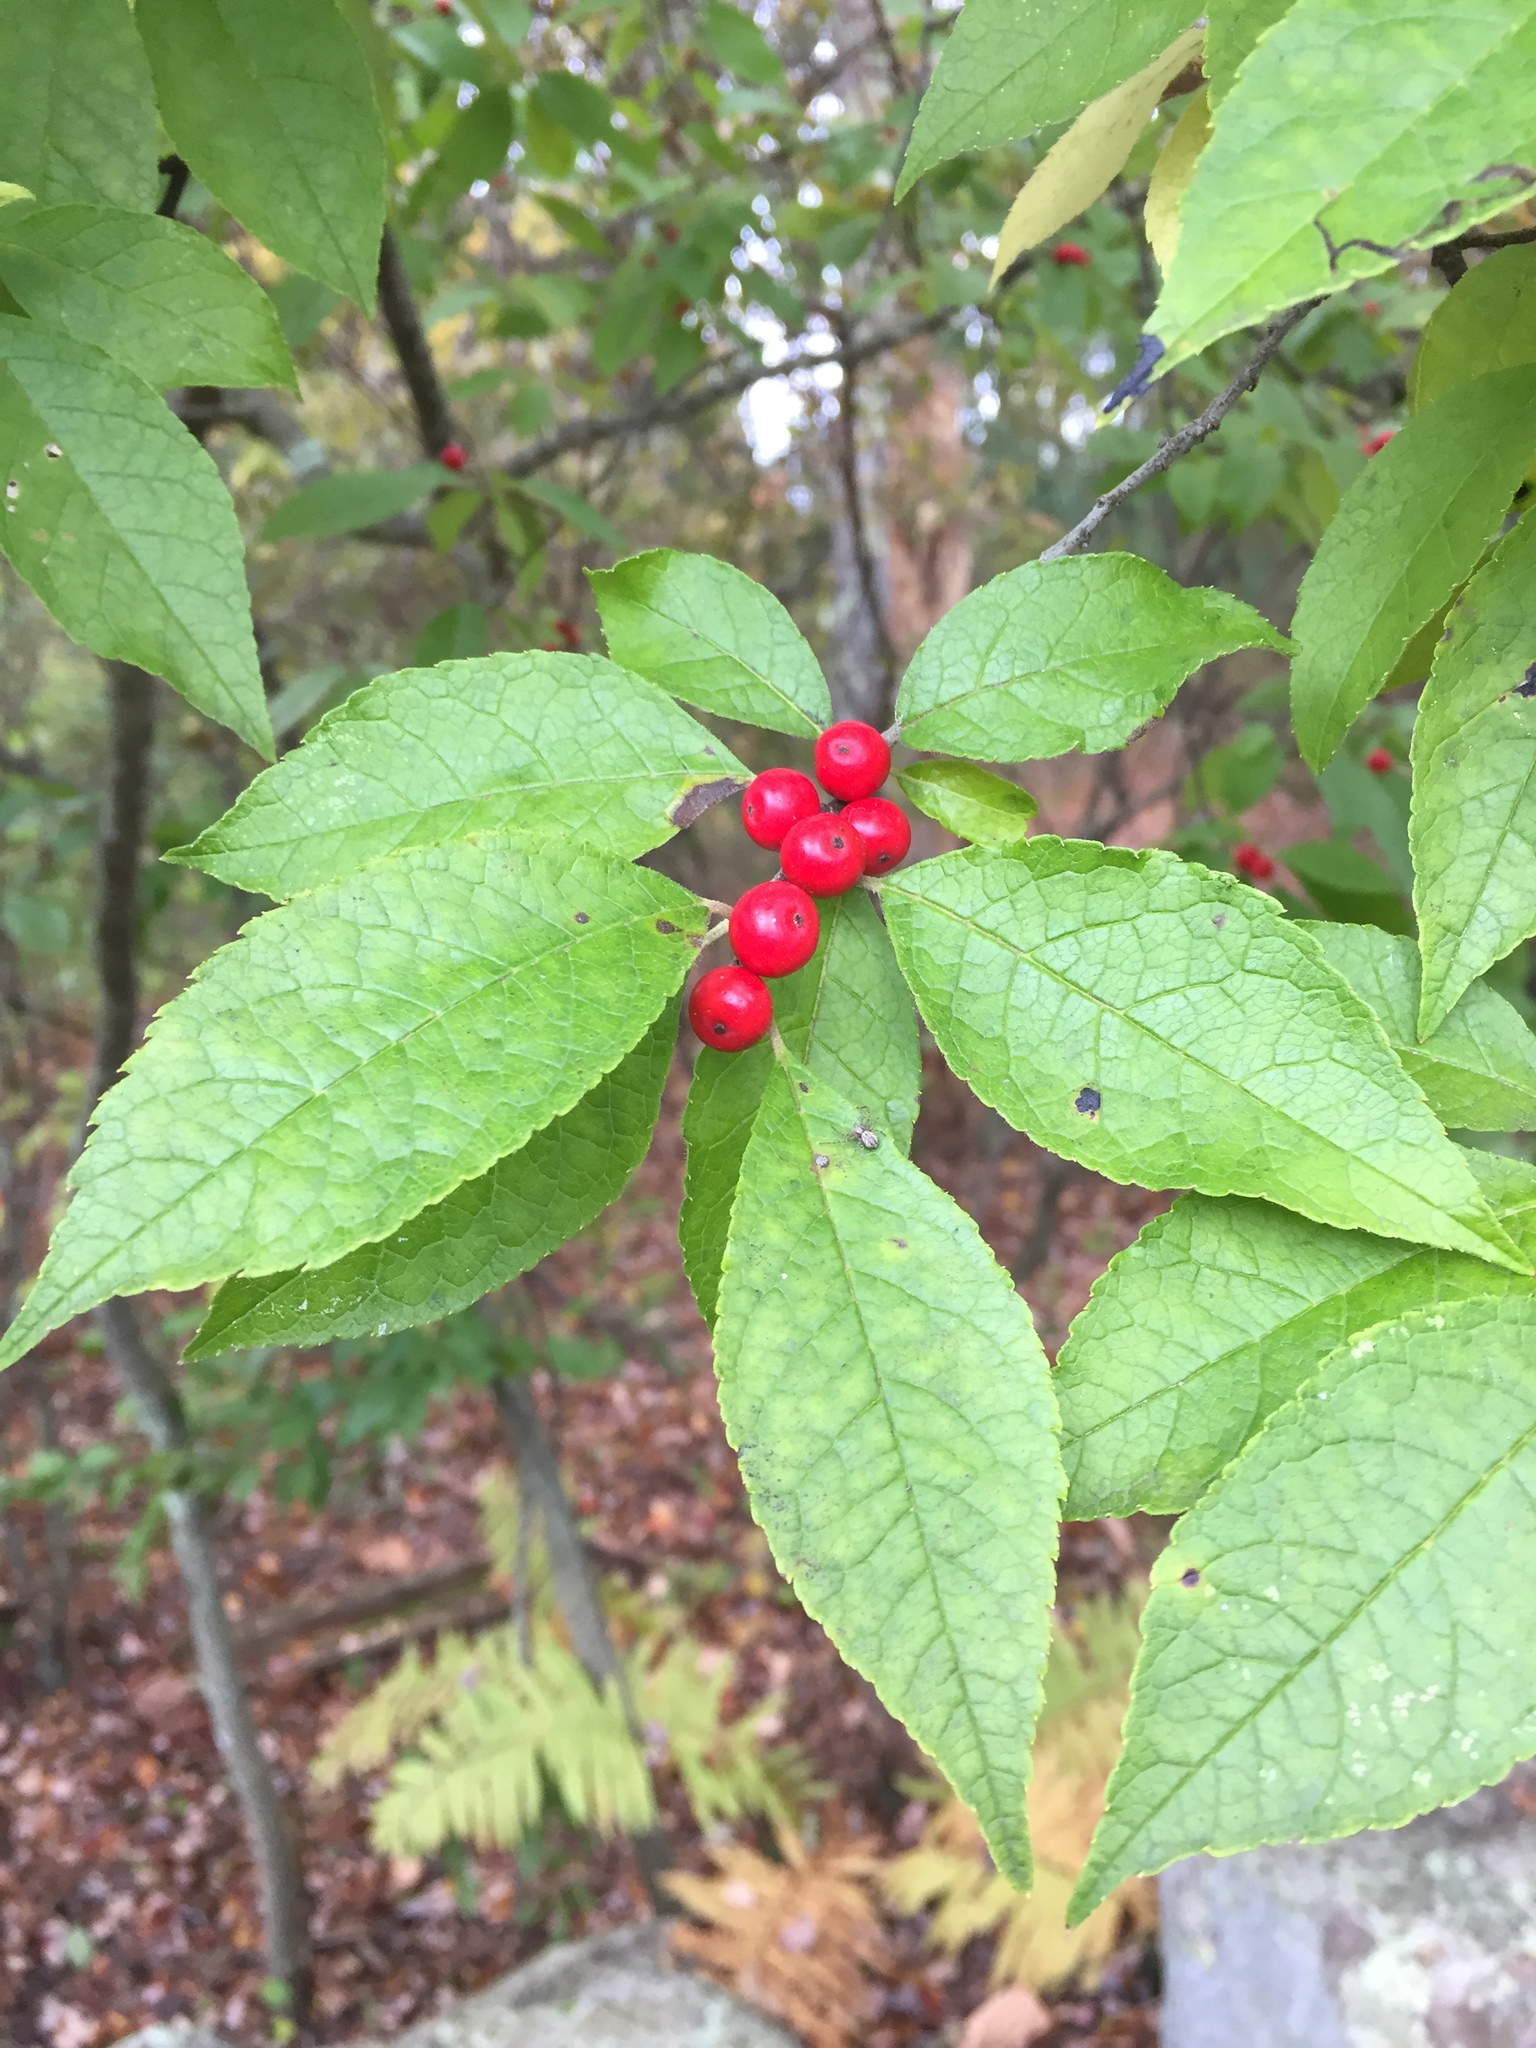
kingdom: Plantae
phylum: Tracheophyta
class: Magnoliopsida
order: Aquifoliales
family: Aquifoliaceae
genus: Ilex
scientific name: Ilex verticillata
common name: Virginia winterberry
